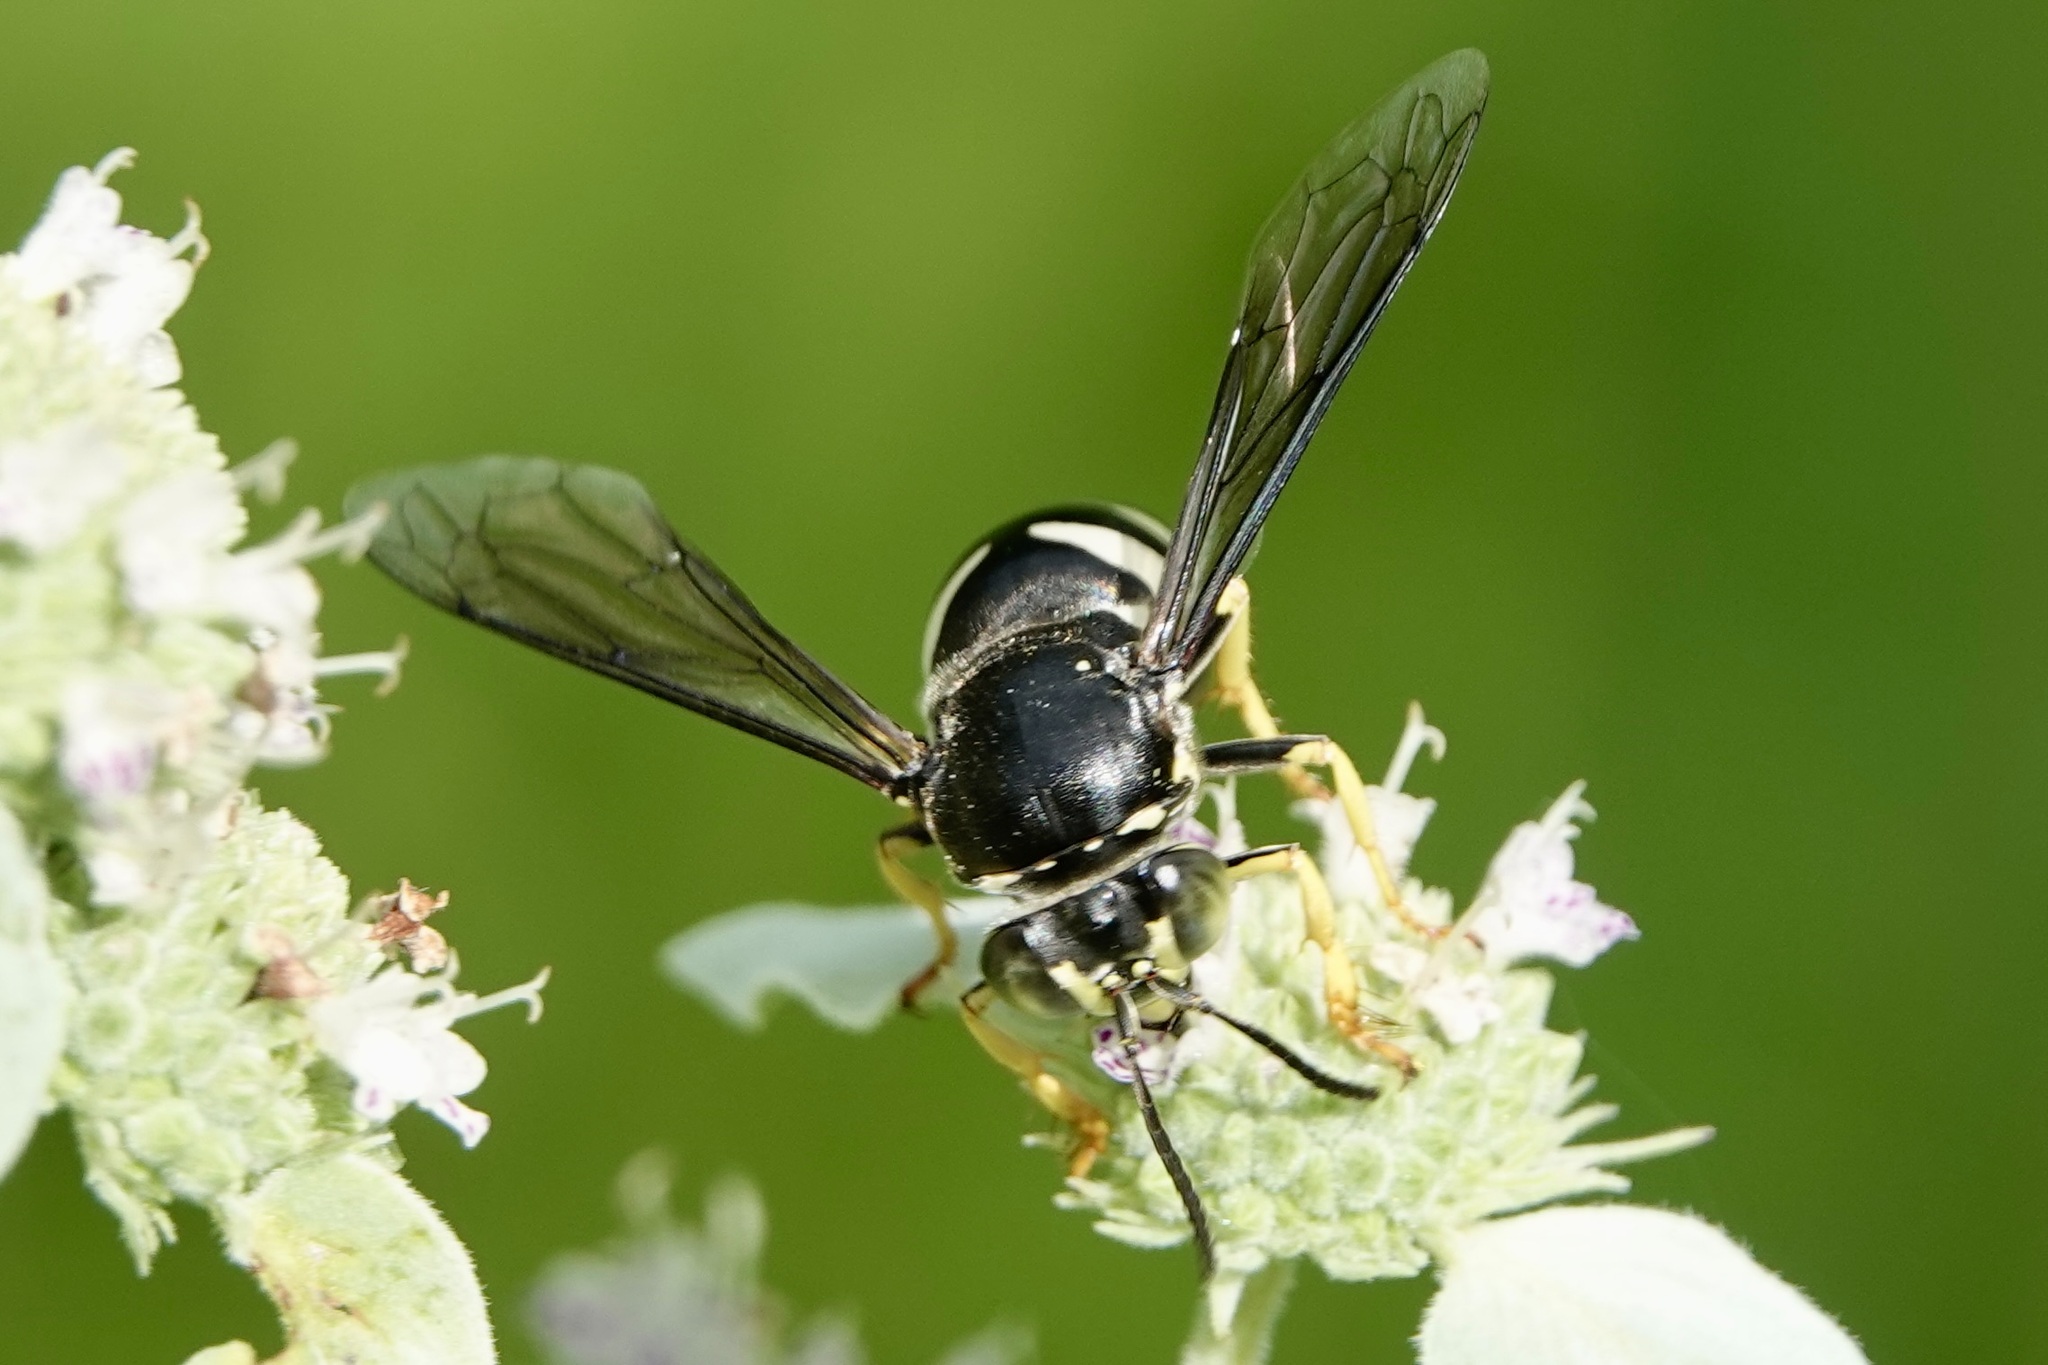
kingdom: Animalia
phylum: Arthropoda
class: Insecta
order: Hymenoptera
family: Crabronidae
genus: Bicyrtes
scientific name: Bicyrtes quadrifasciatus
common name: Four-banded stink bug hunter wasp
